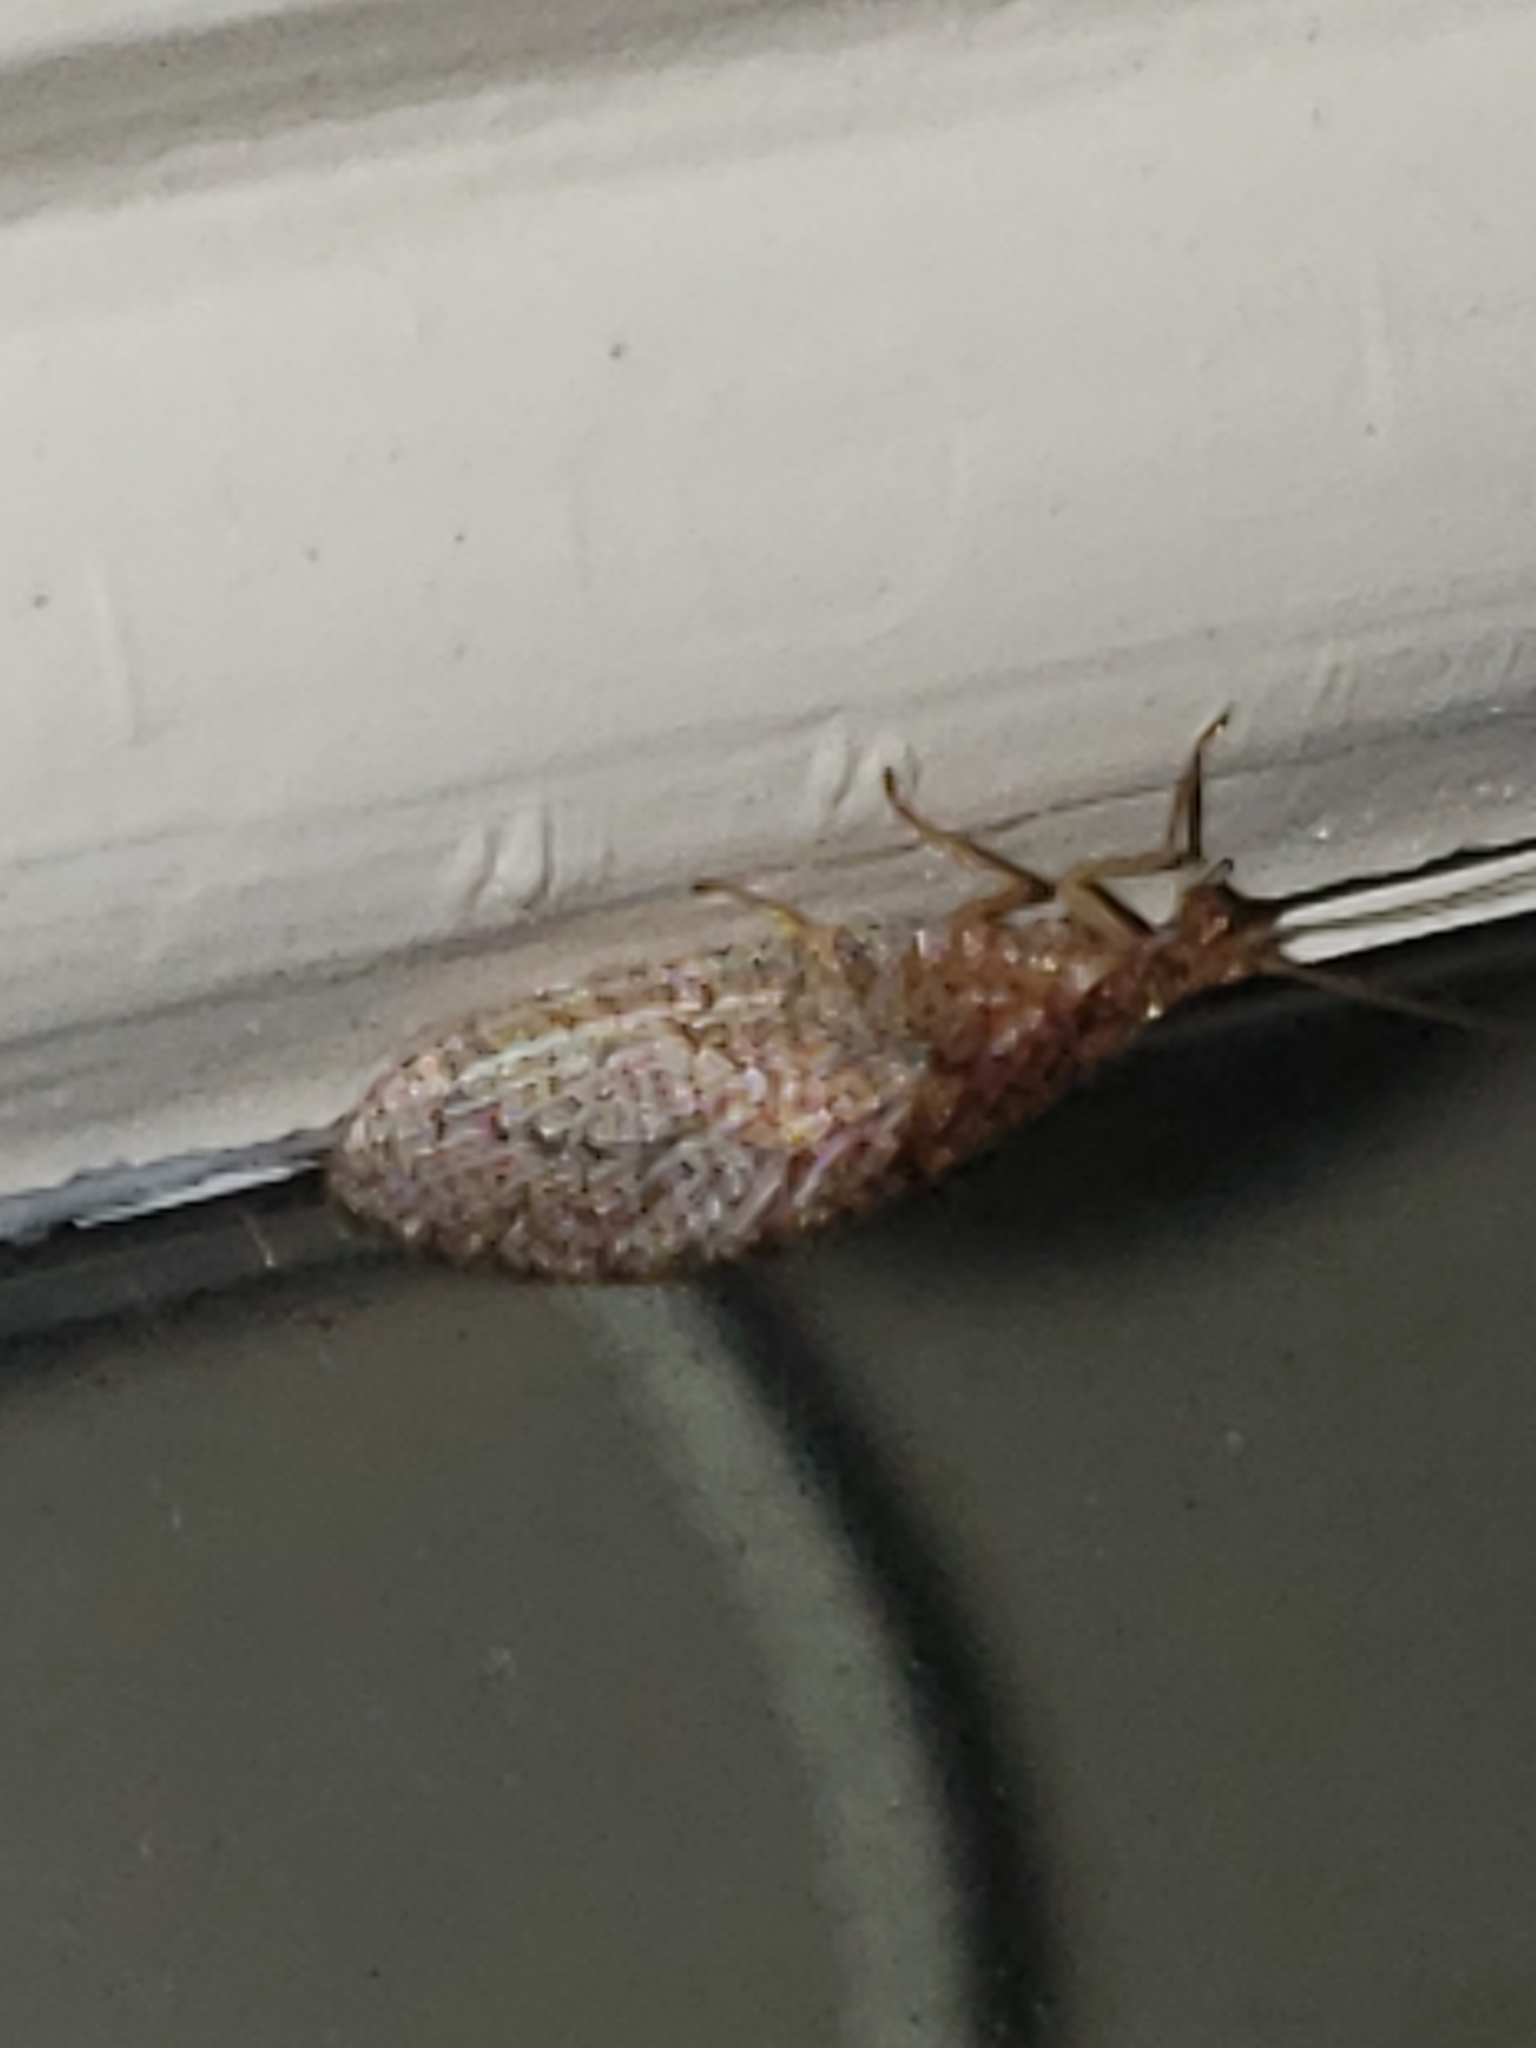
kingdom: Animalia
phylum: Arthropoda
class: Insecta
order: Neuroptera
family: Hemerobiidae
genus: Micromus
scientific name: Micromus posticus
